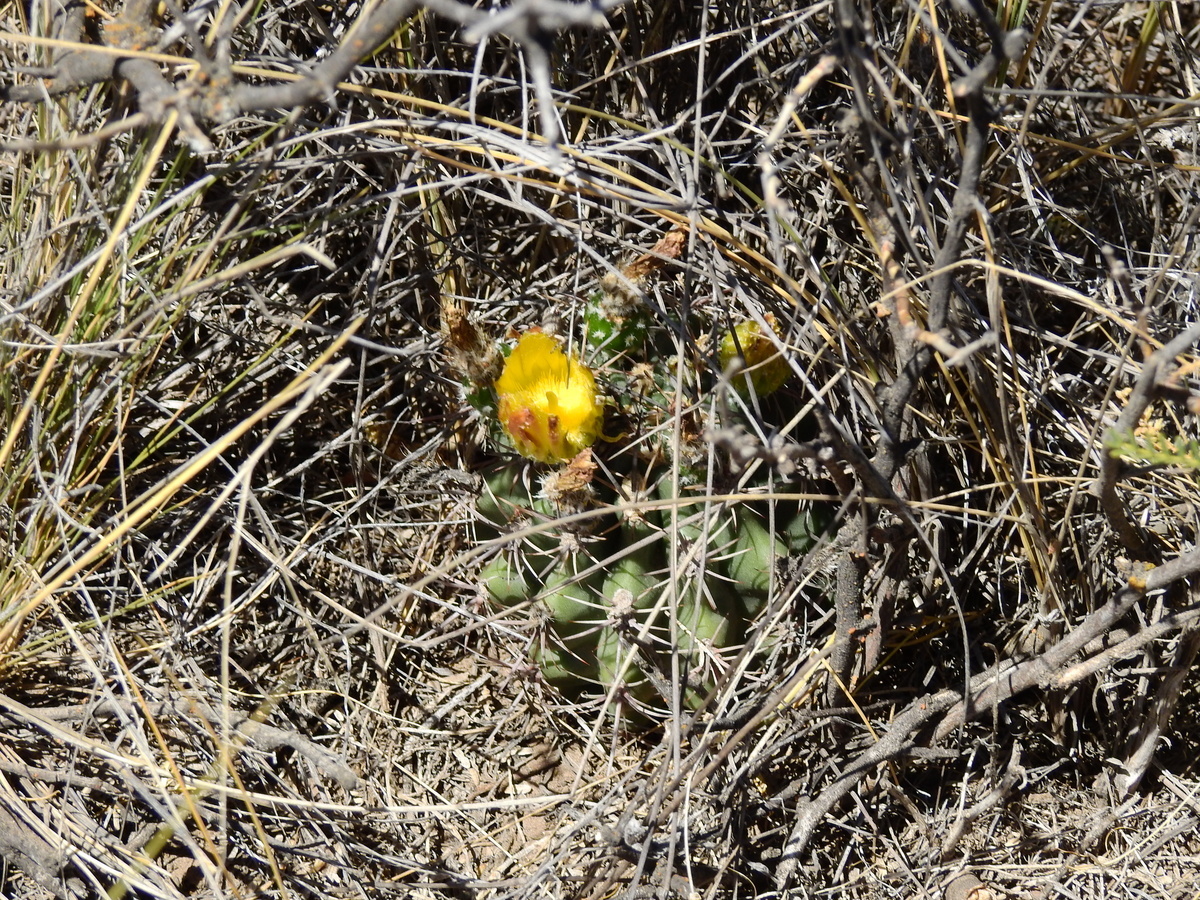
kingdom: Plantae
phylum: Tracheophyta
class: Magnoliopsida
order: Caryophyllales
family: Cactaceae
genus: Eriosyce
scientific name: Eriosyce strausiana
